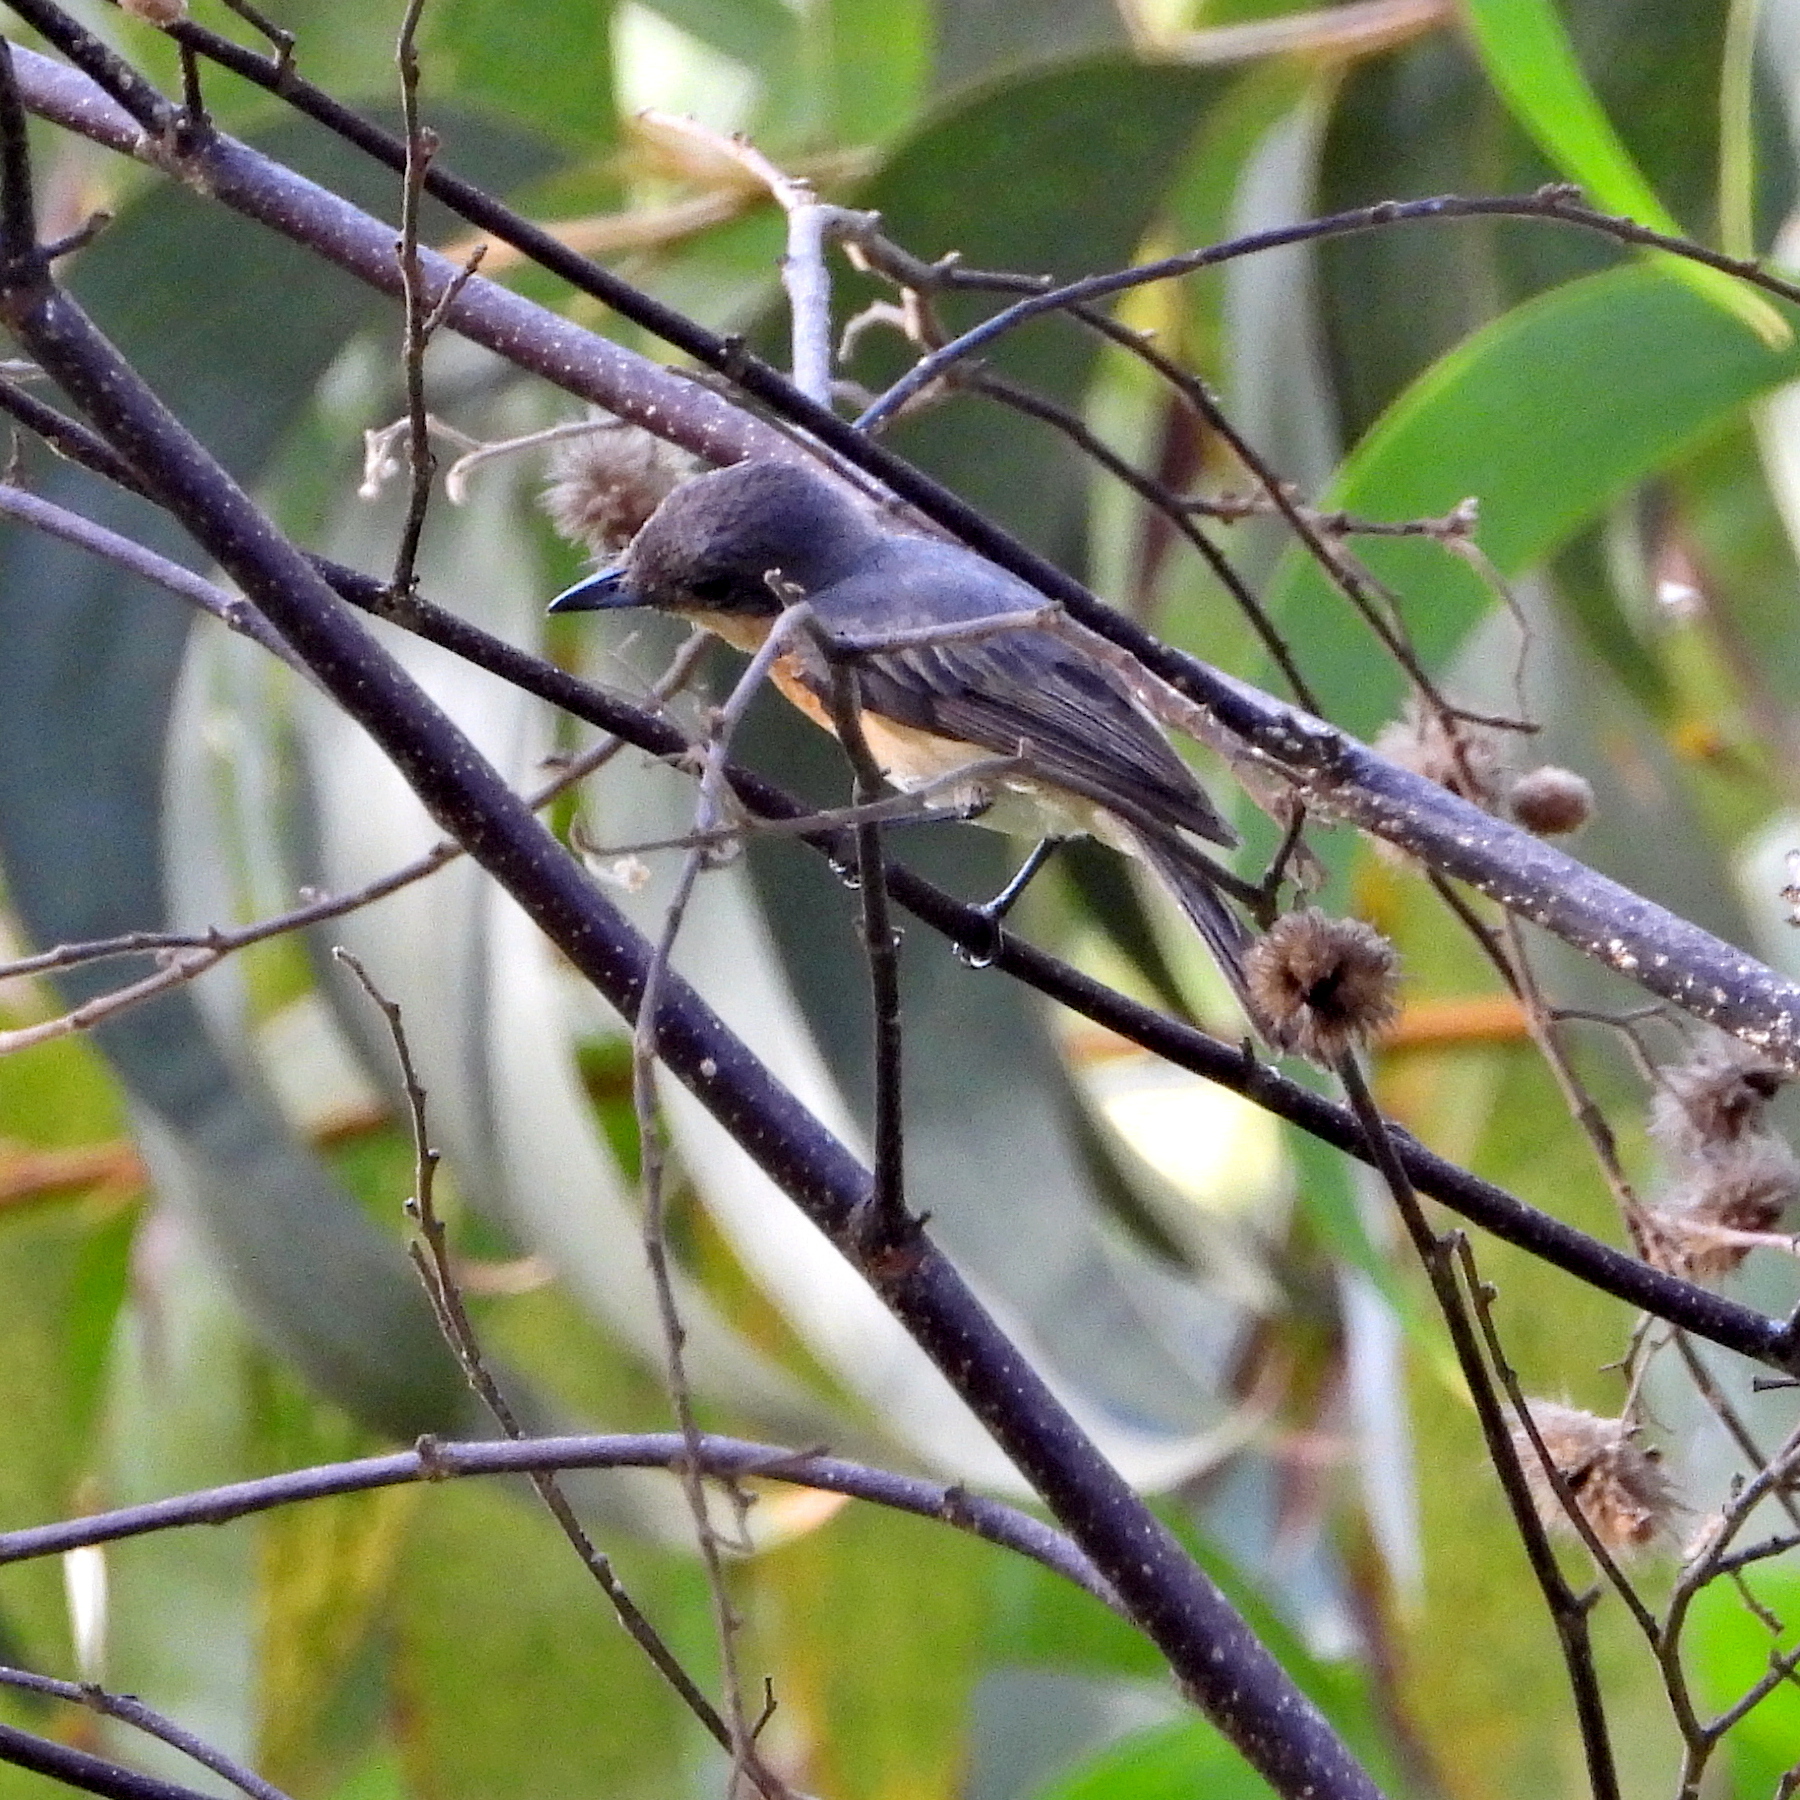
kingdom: Animalia
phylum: Chordata
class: Aves
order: Passeriformes
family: Monarchidae
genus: Myiagra
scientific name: Myiagra galeata
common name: Moluccan flycatcher
